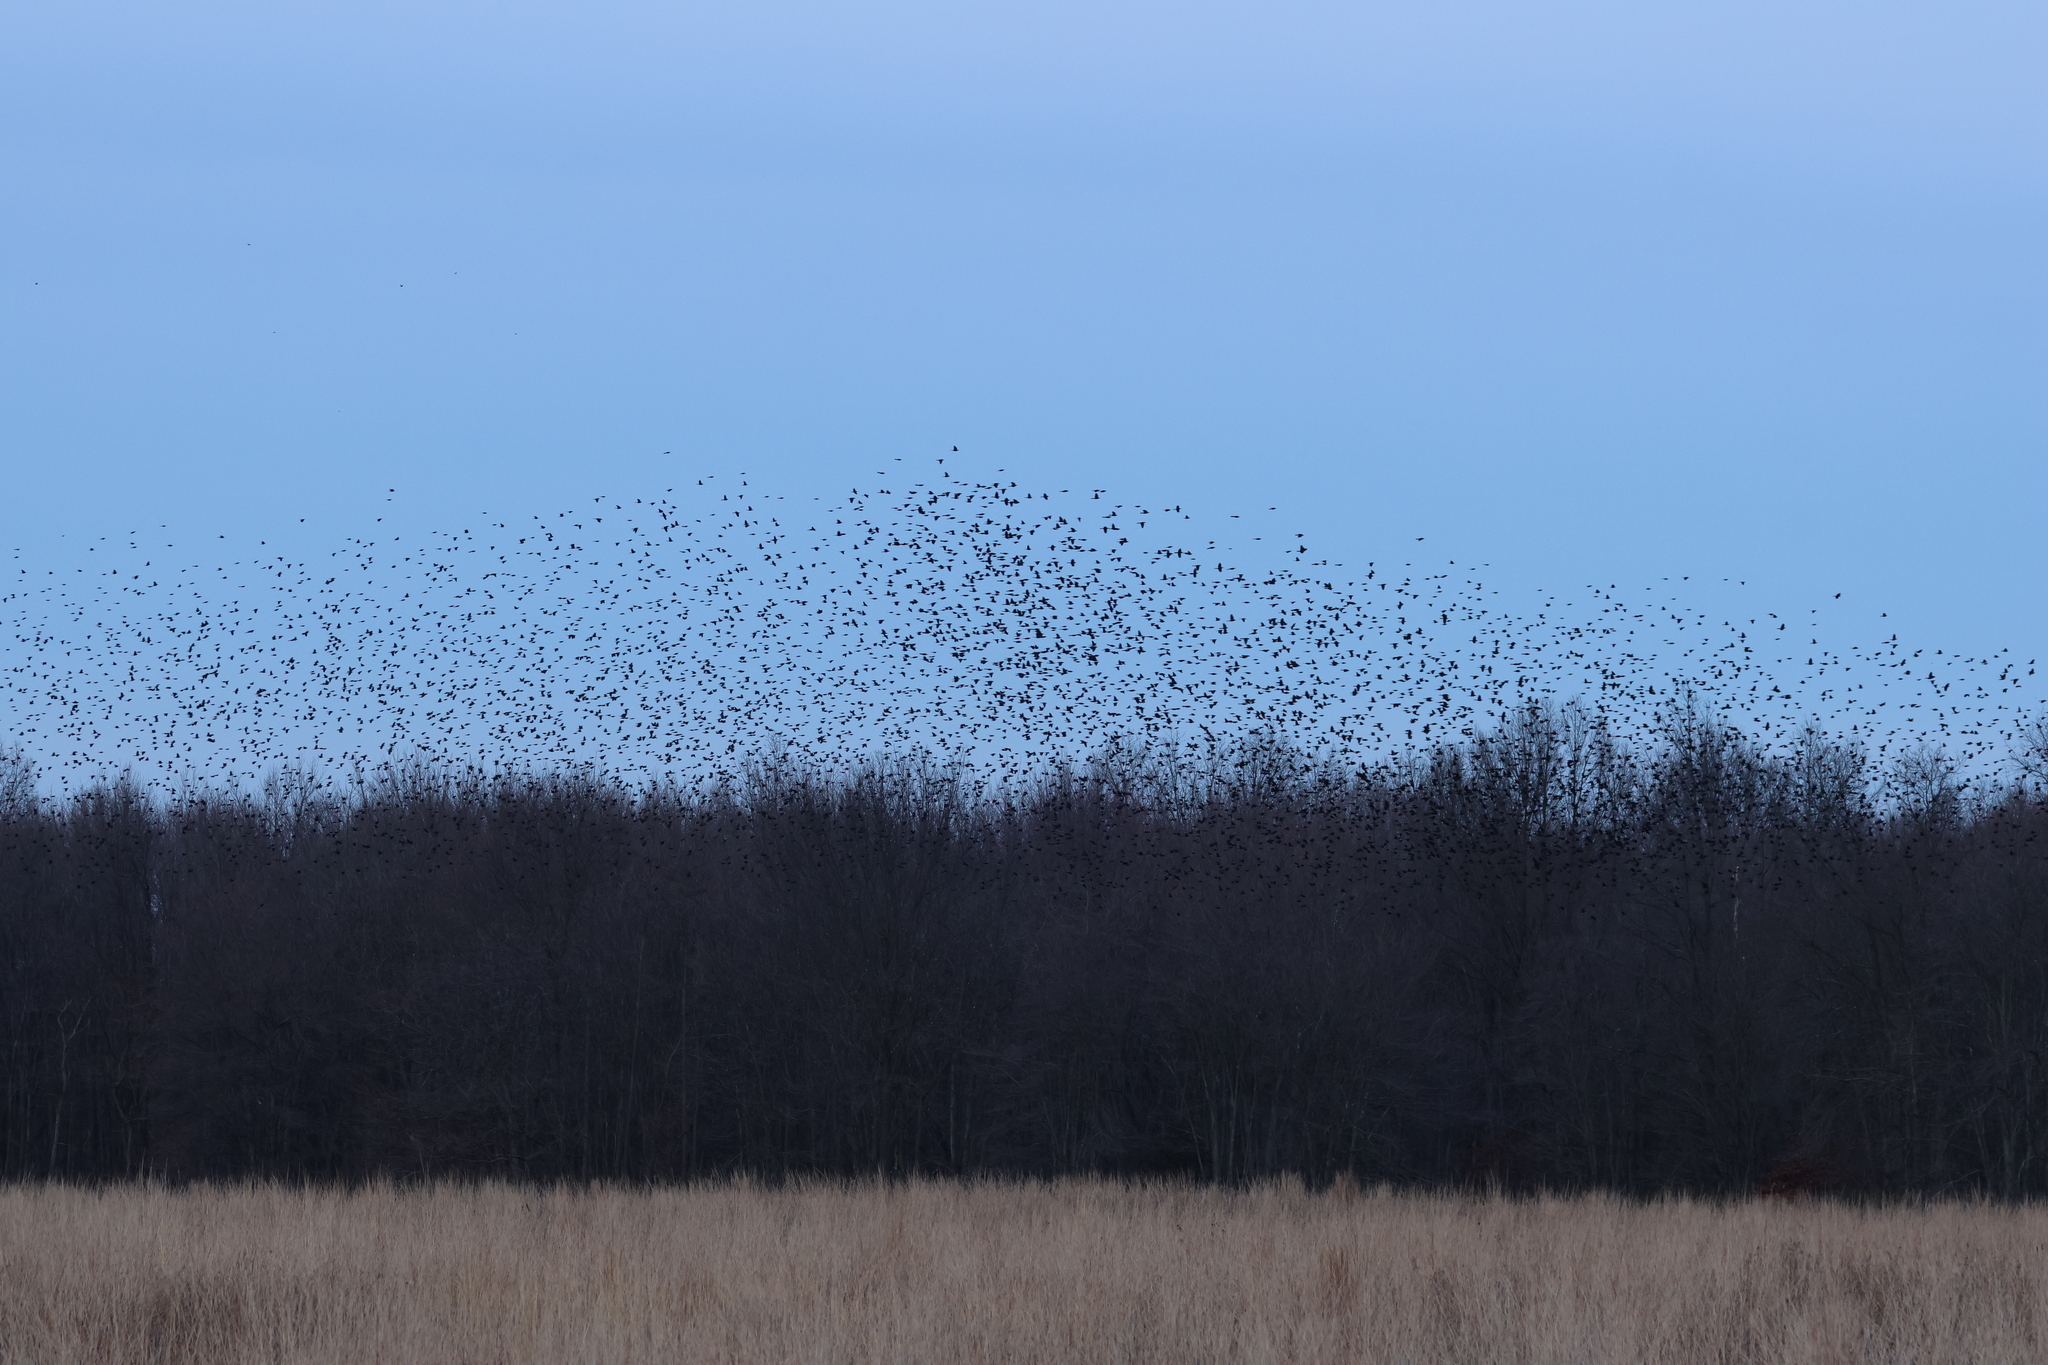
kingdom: Animalia
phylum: Chordata
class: Aves
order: Passeriformes
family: Icteridae
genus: Quiscalus
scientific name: Quiscalus quiscula
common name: Common grackle
